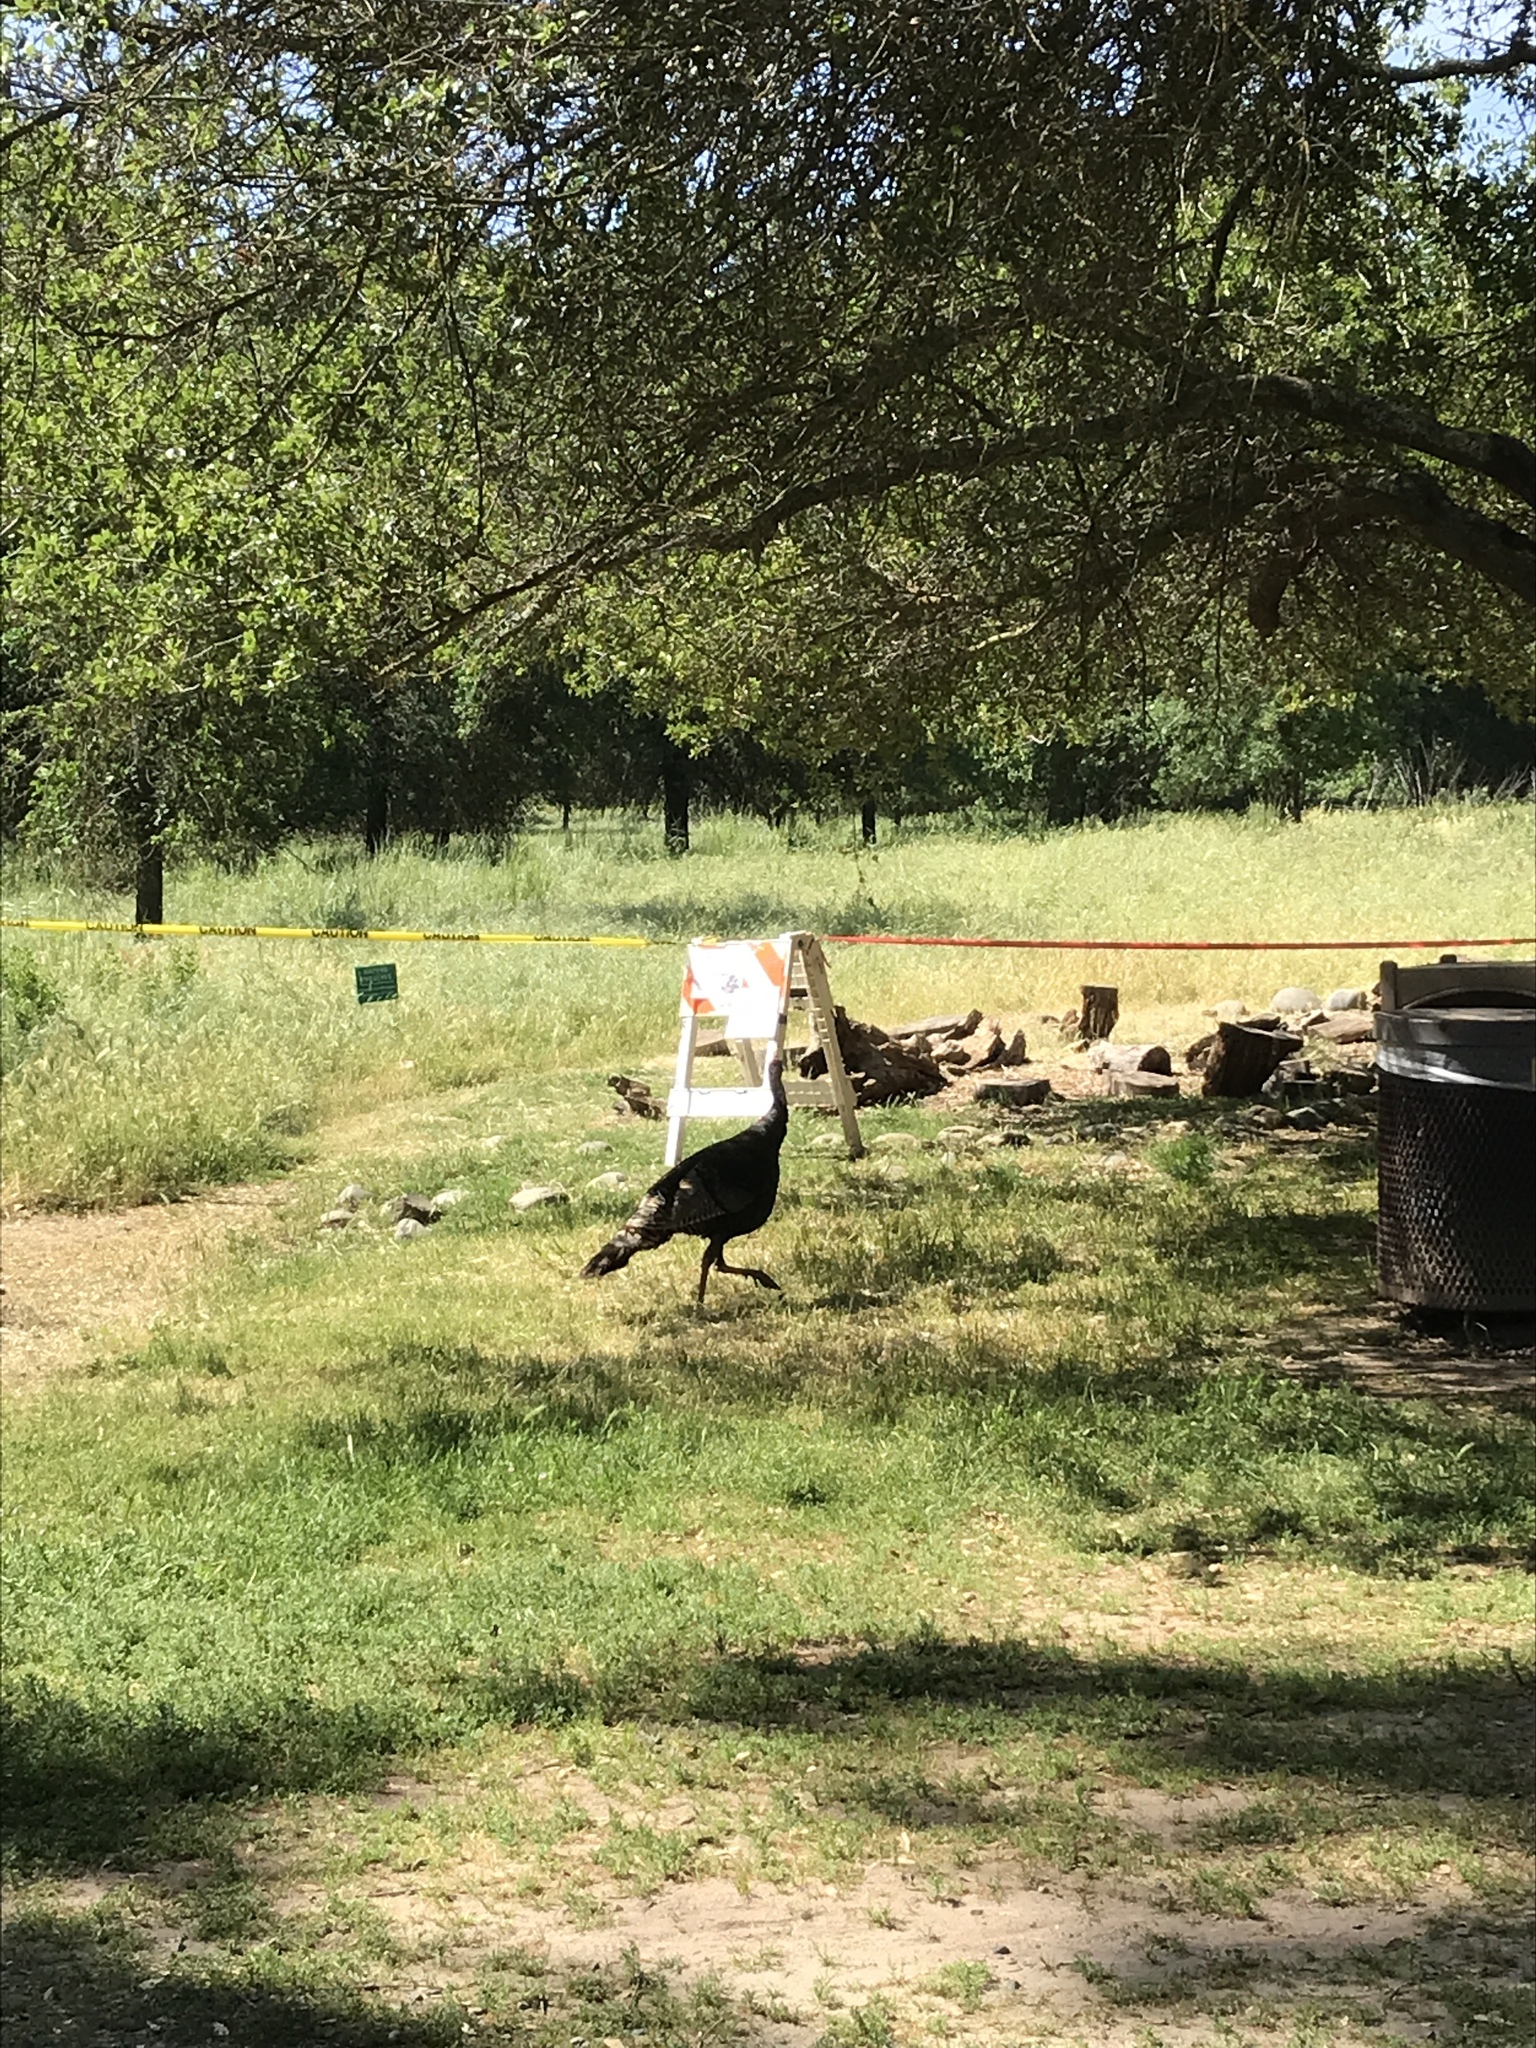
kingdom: Animalia
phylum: Chordata
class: Aves
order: Galliformes
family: Phasianidae
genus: Meleagris
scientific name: Meleagris gallopavo
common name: Wild turkey
